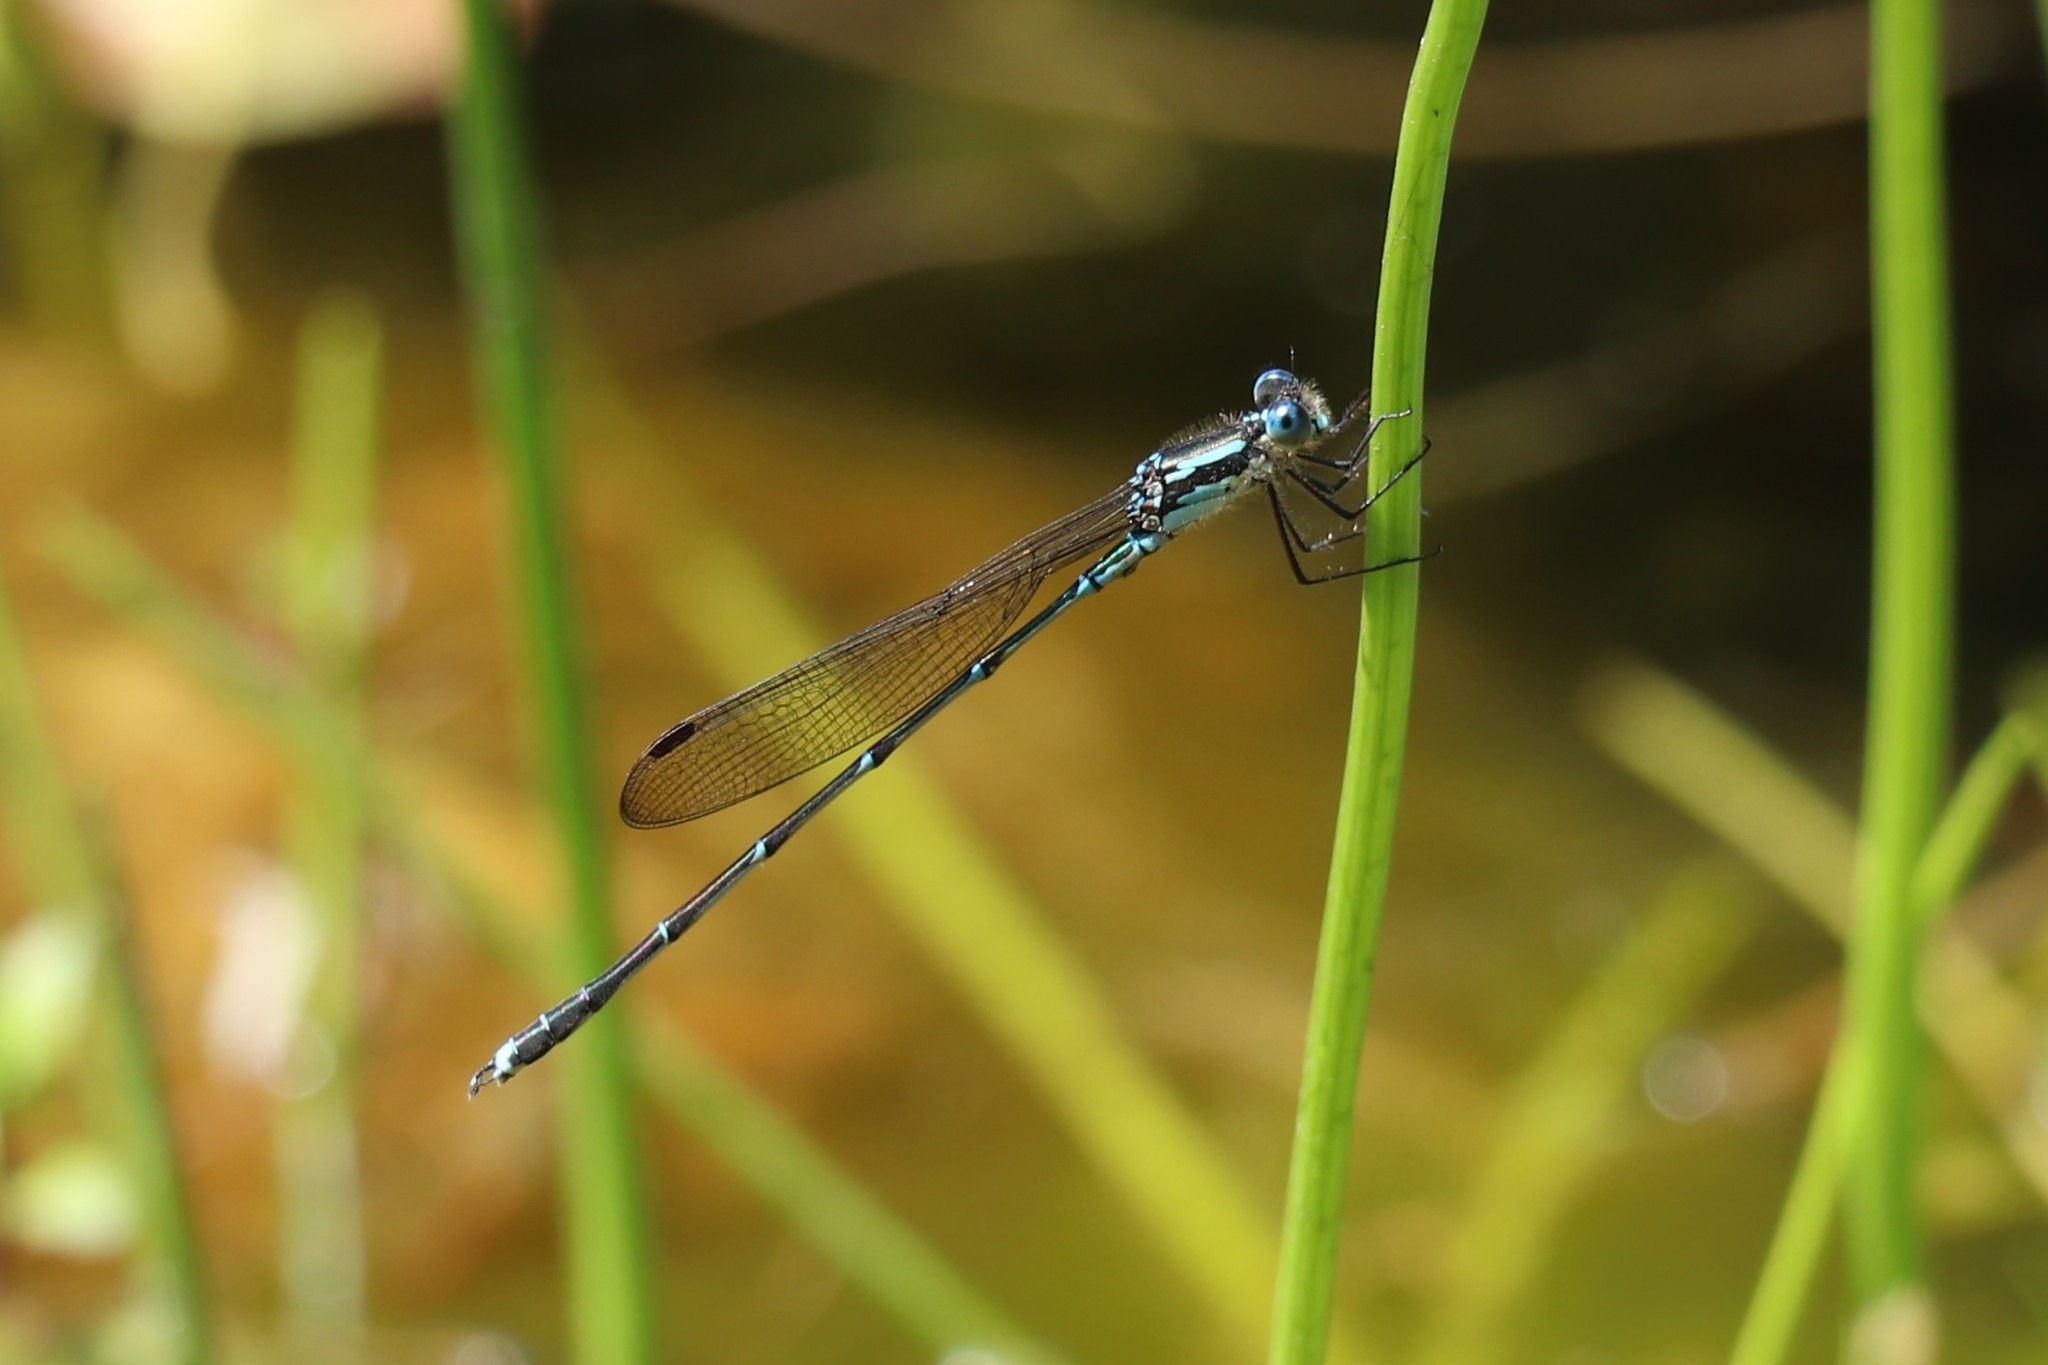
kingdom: Animalia
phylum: Arthropoda
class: Insecta
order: Odonata
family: Lestidae
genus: Austrolestes
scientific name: Austrolestes colensonis
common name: Blue damselfly
